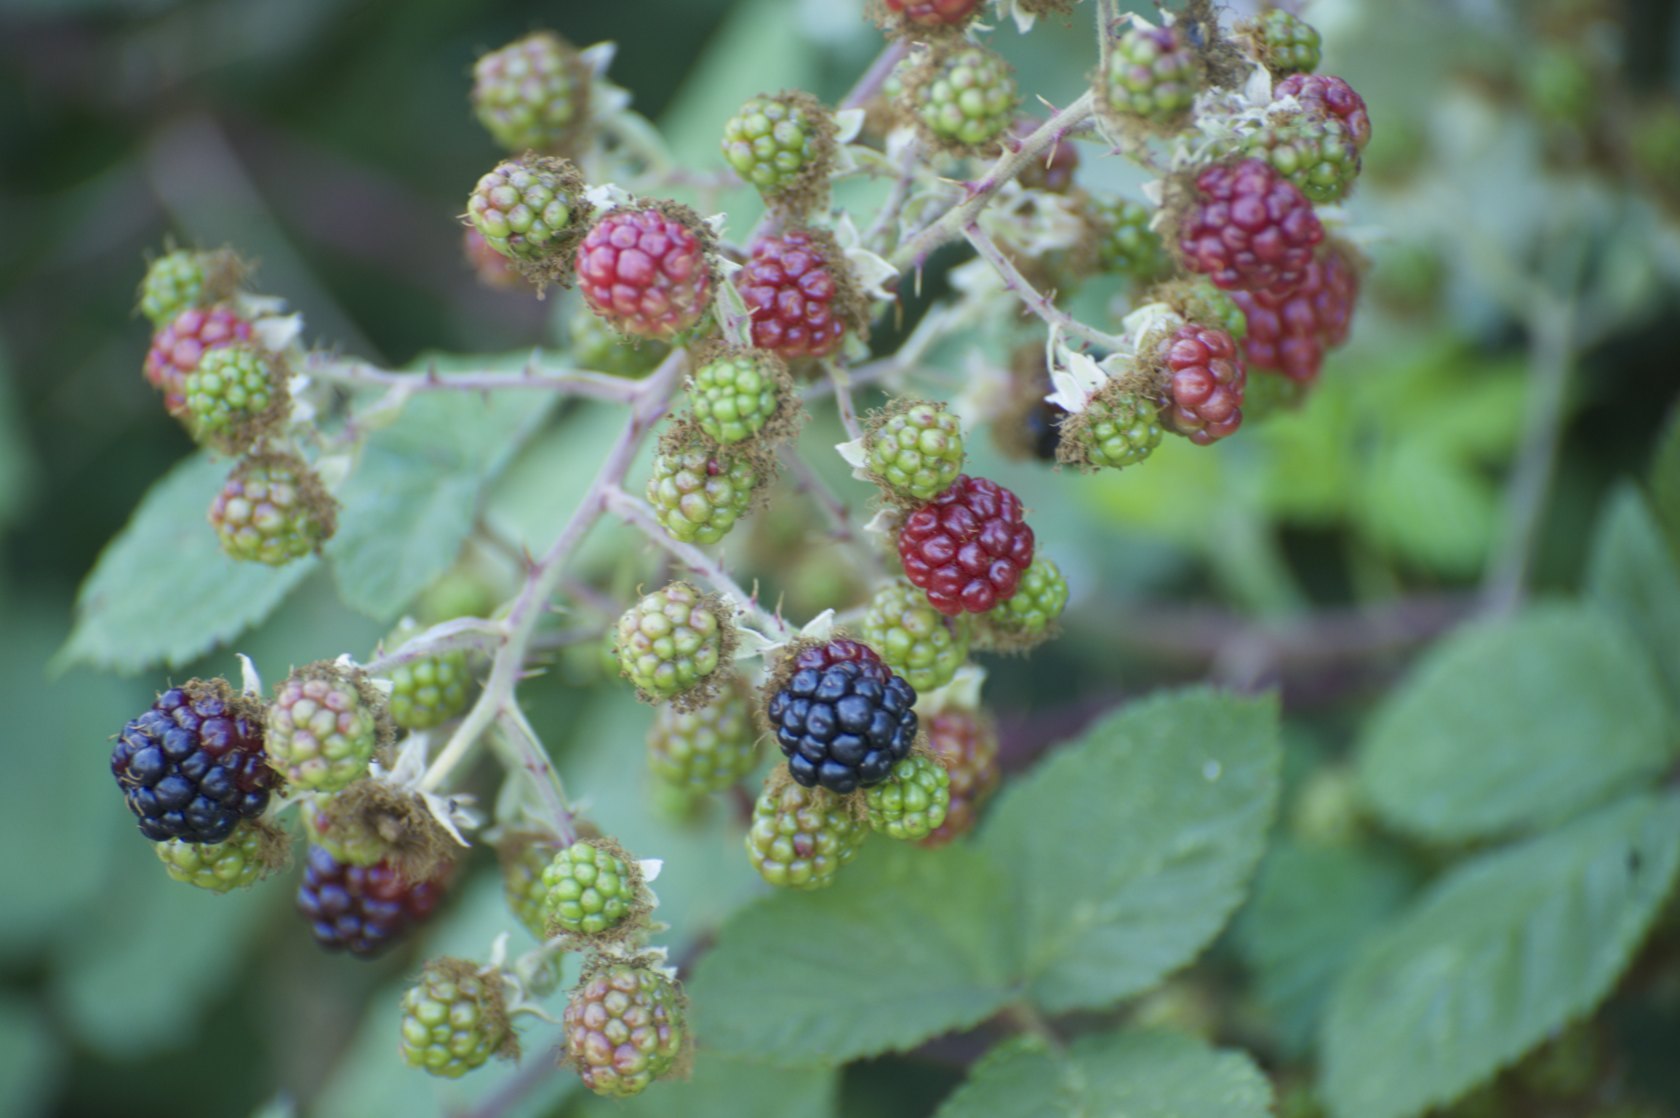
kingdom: Plantae
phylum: Tracheophyta
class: Magnoliopsida
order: Rosales
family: Rosaceae
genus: Rubus
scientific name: Rubus armeniacus
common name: Himalayan blackberry
